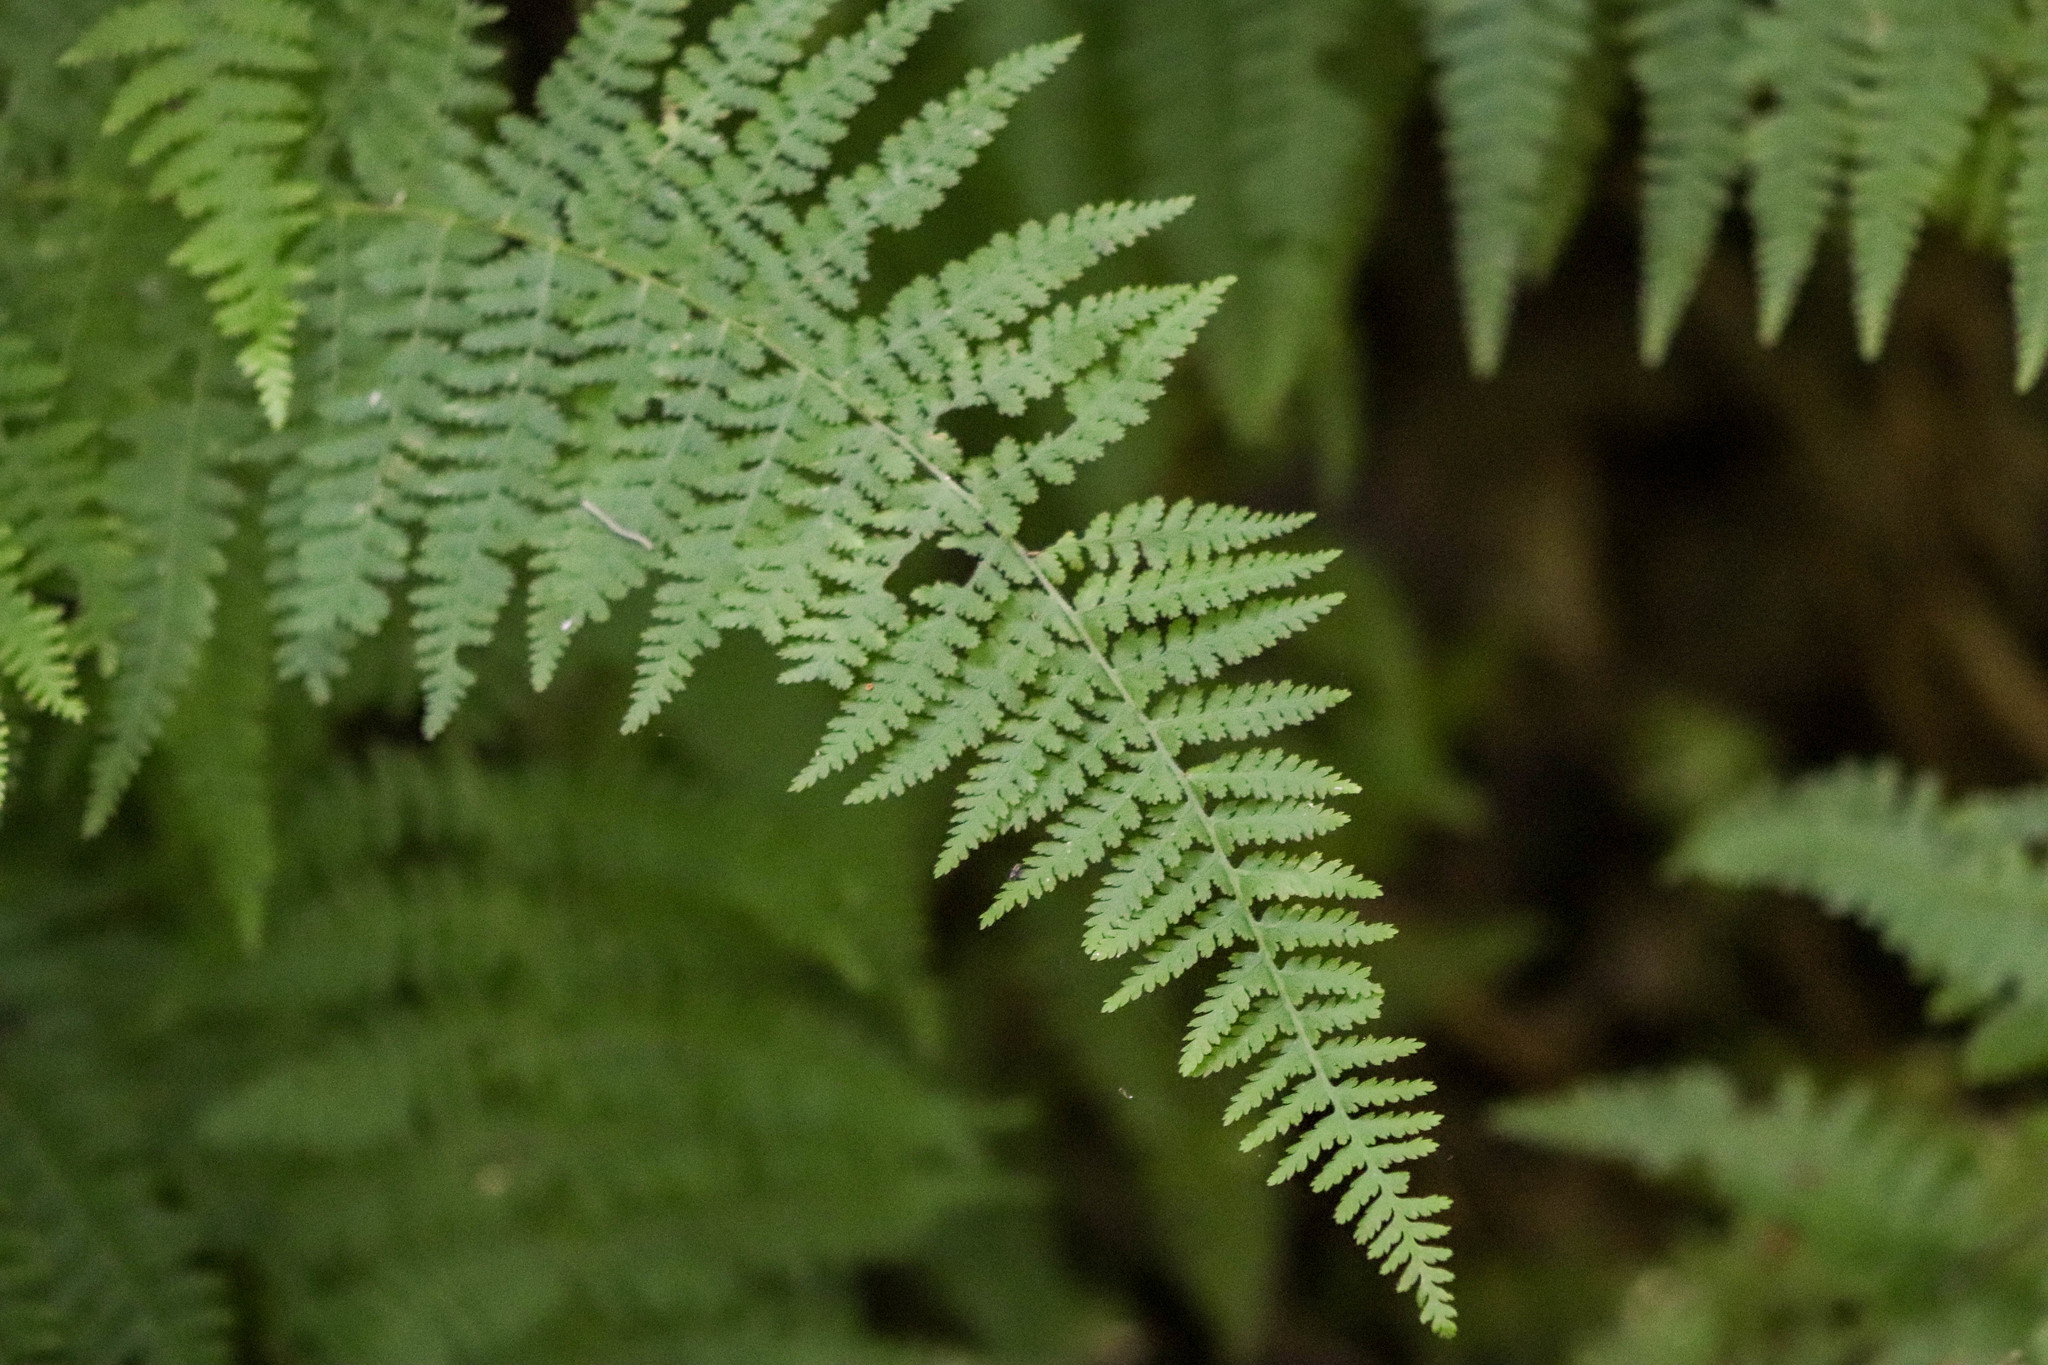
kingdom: Plantae
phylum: Tracheophyta
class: Polypodiopsida
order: Polypodiales
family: Dennstaedtiaceae
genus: Sitobolium
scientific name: Sitobolium punctilobum
